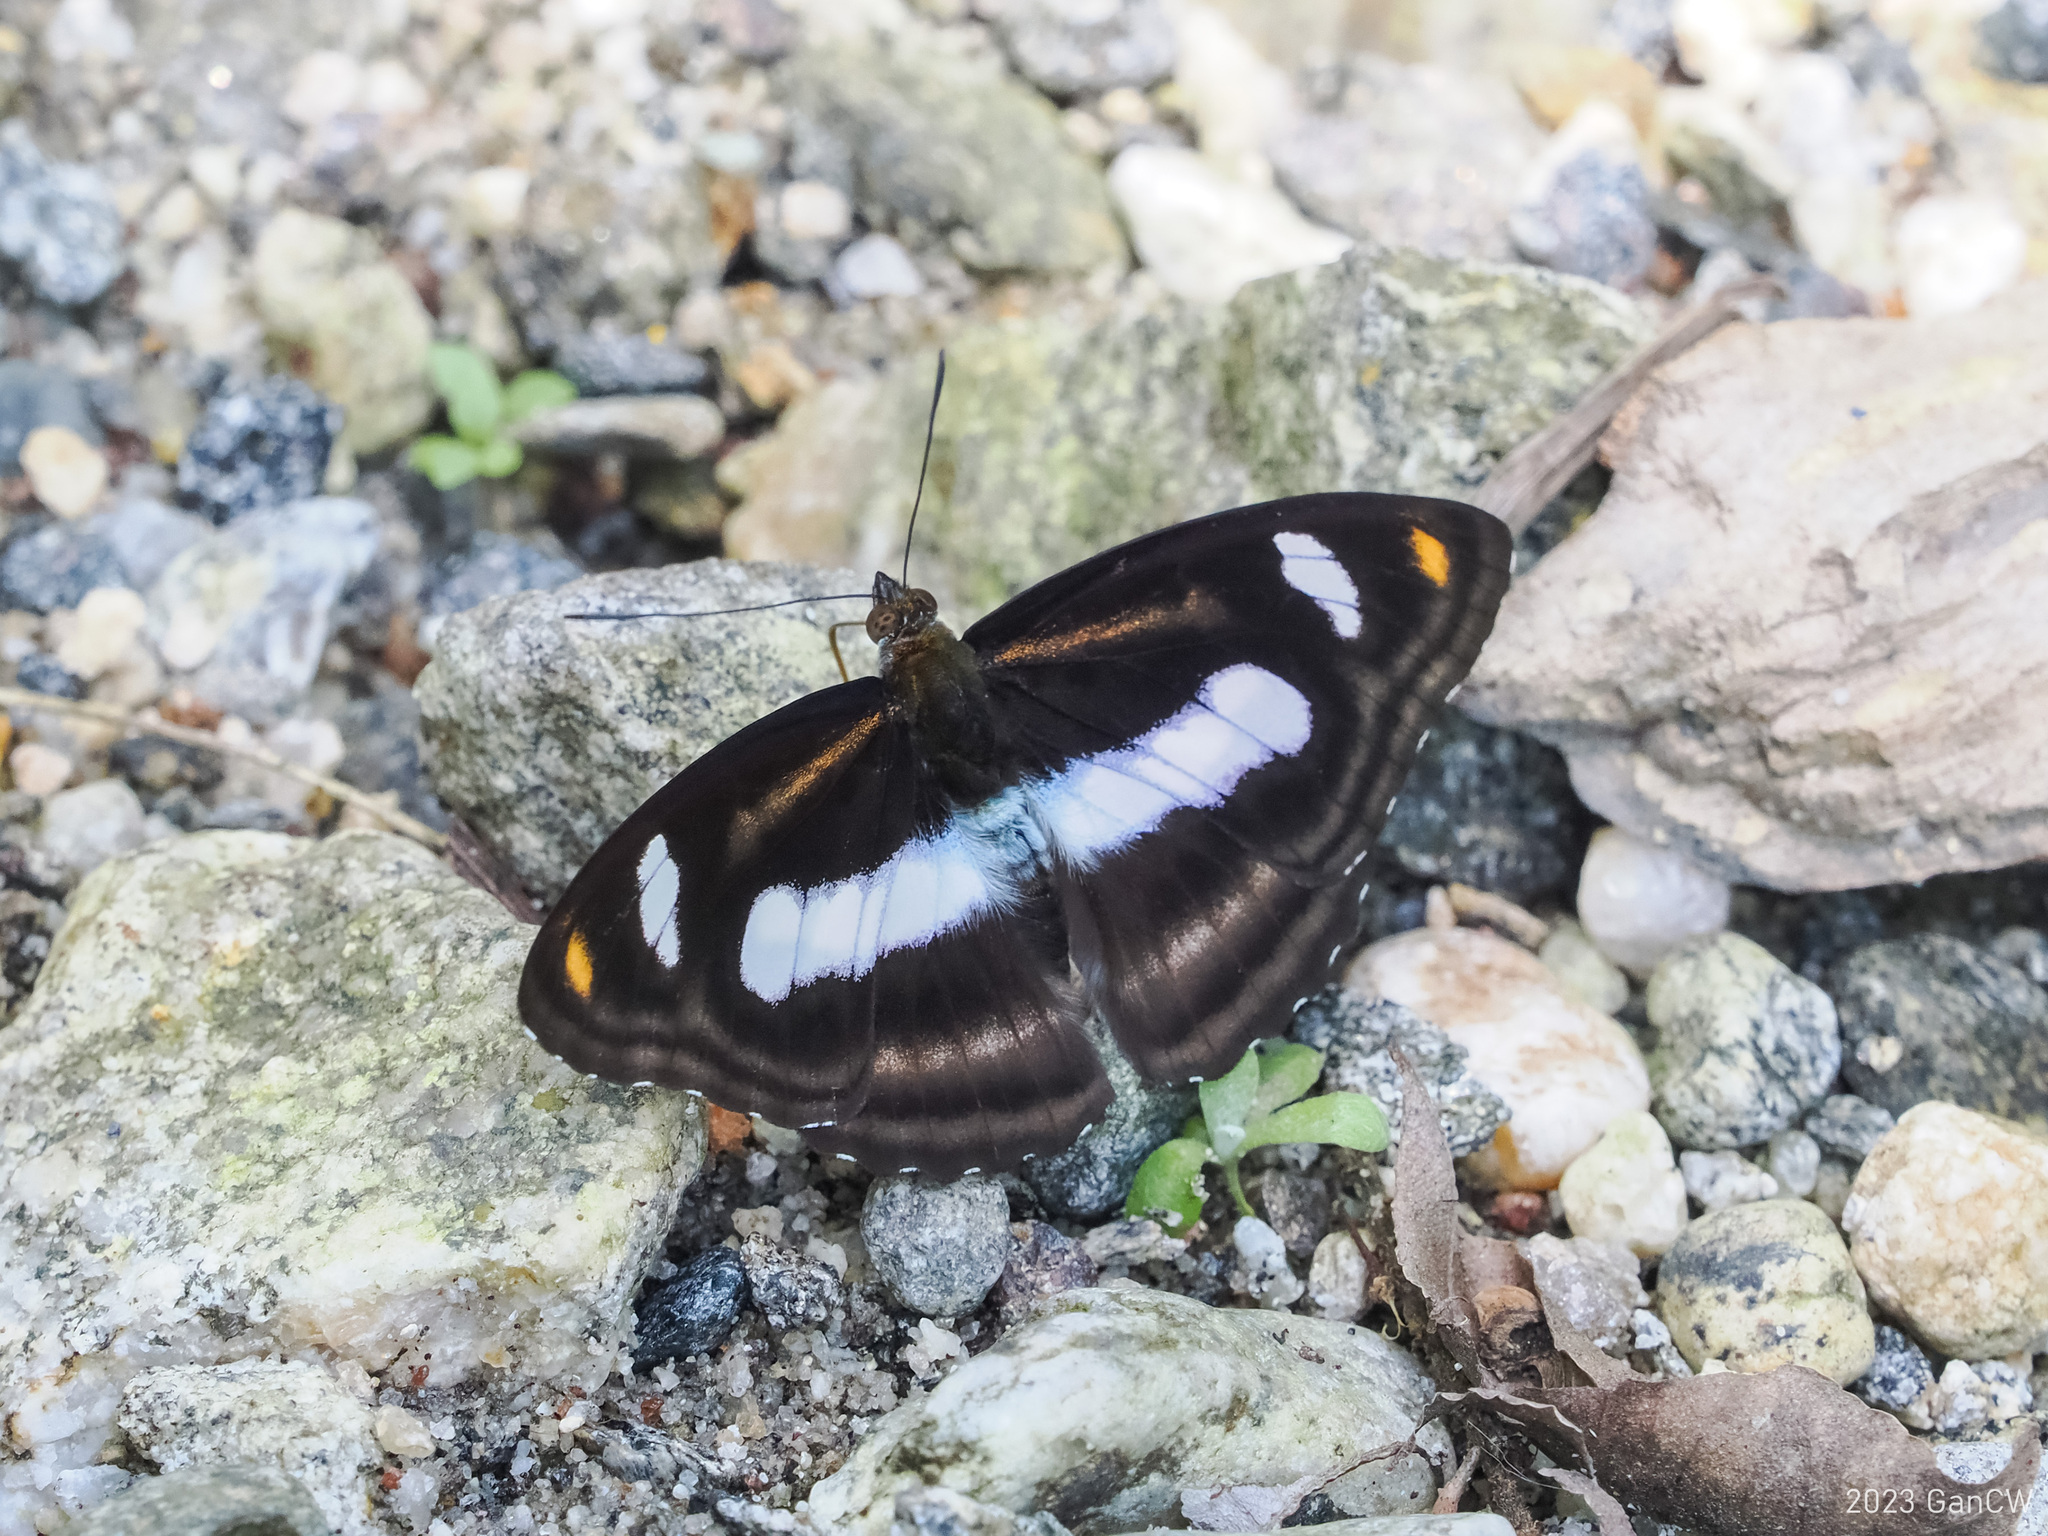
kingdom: Animalia
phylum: Arthropoda
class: Insecta
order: Lepidoptera
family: Nymphalidae
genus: Pantoporia
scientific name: Pantoporia cama
